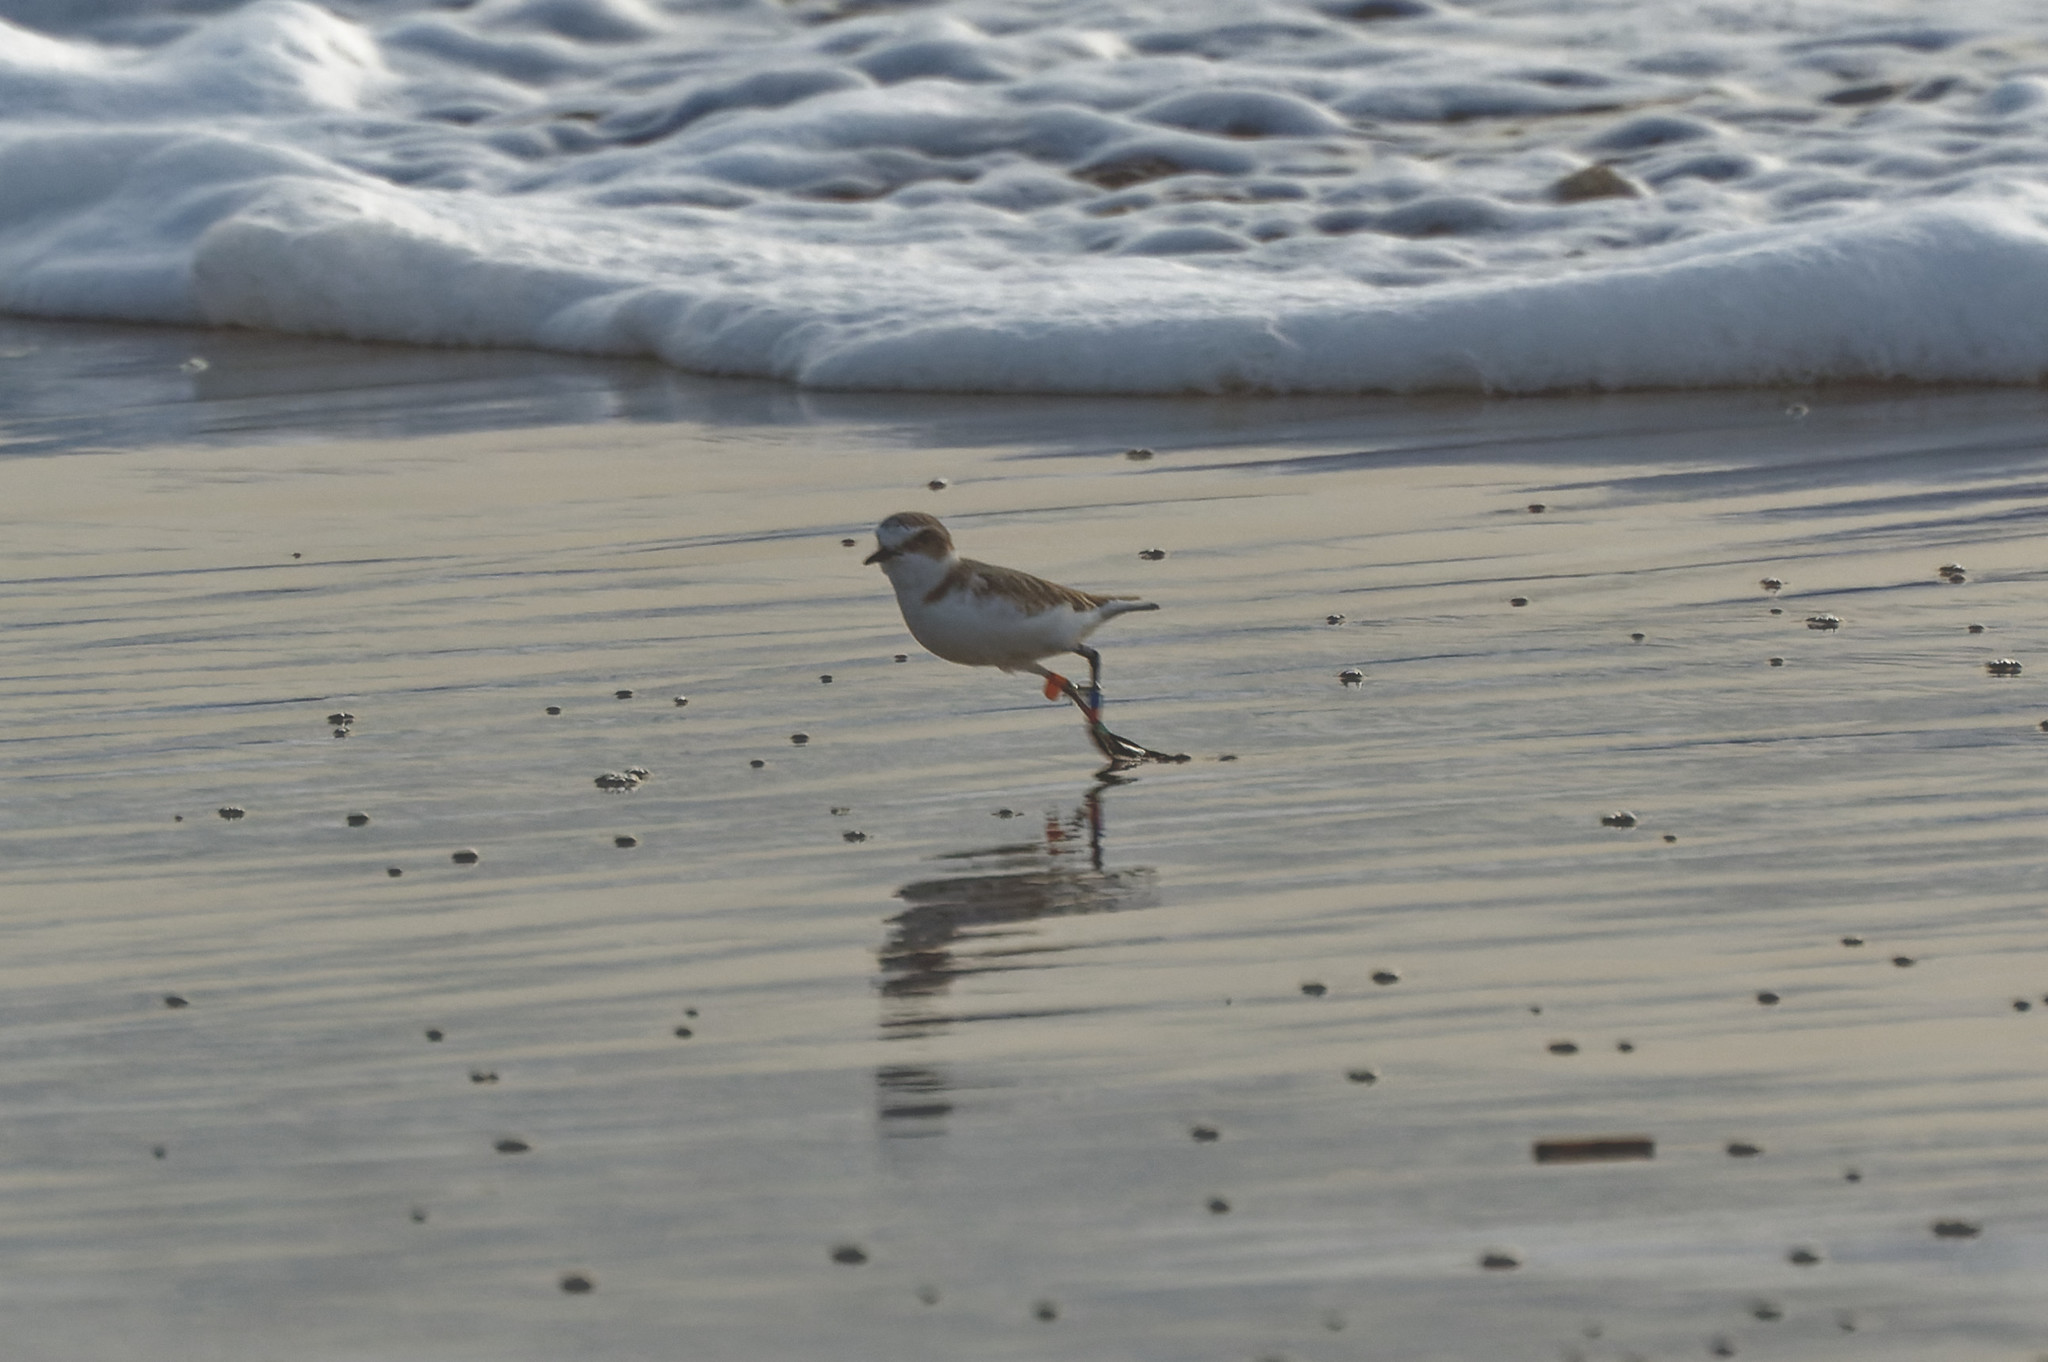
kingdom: Animalia
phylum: Chordata
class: Aves
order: Charadriiformes
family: Charadriidae
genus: Charadrius
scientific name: Charadrius alexandrinus
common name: Kentish plover
